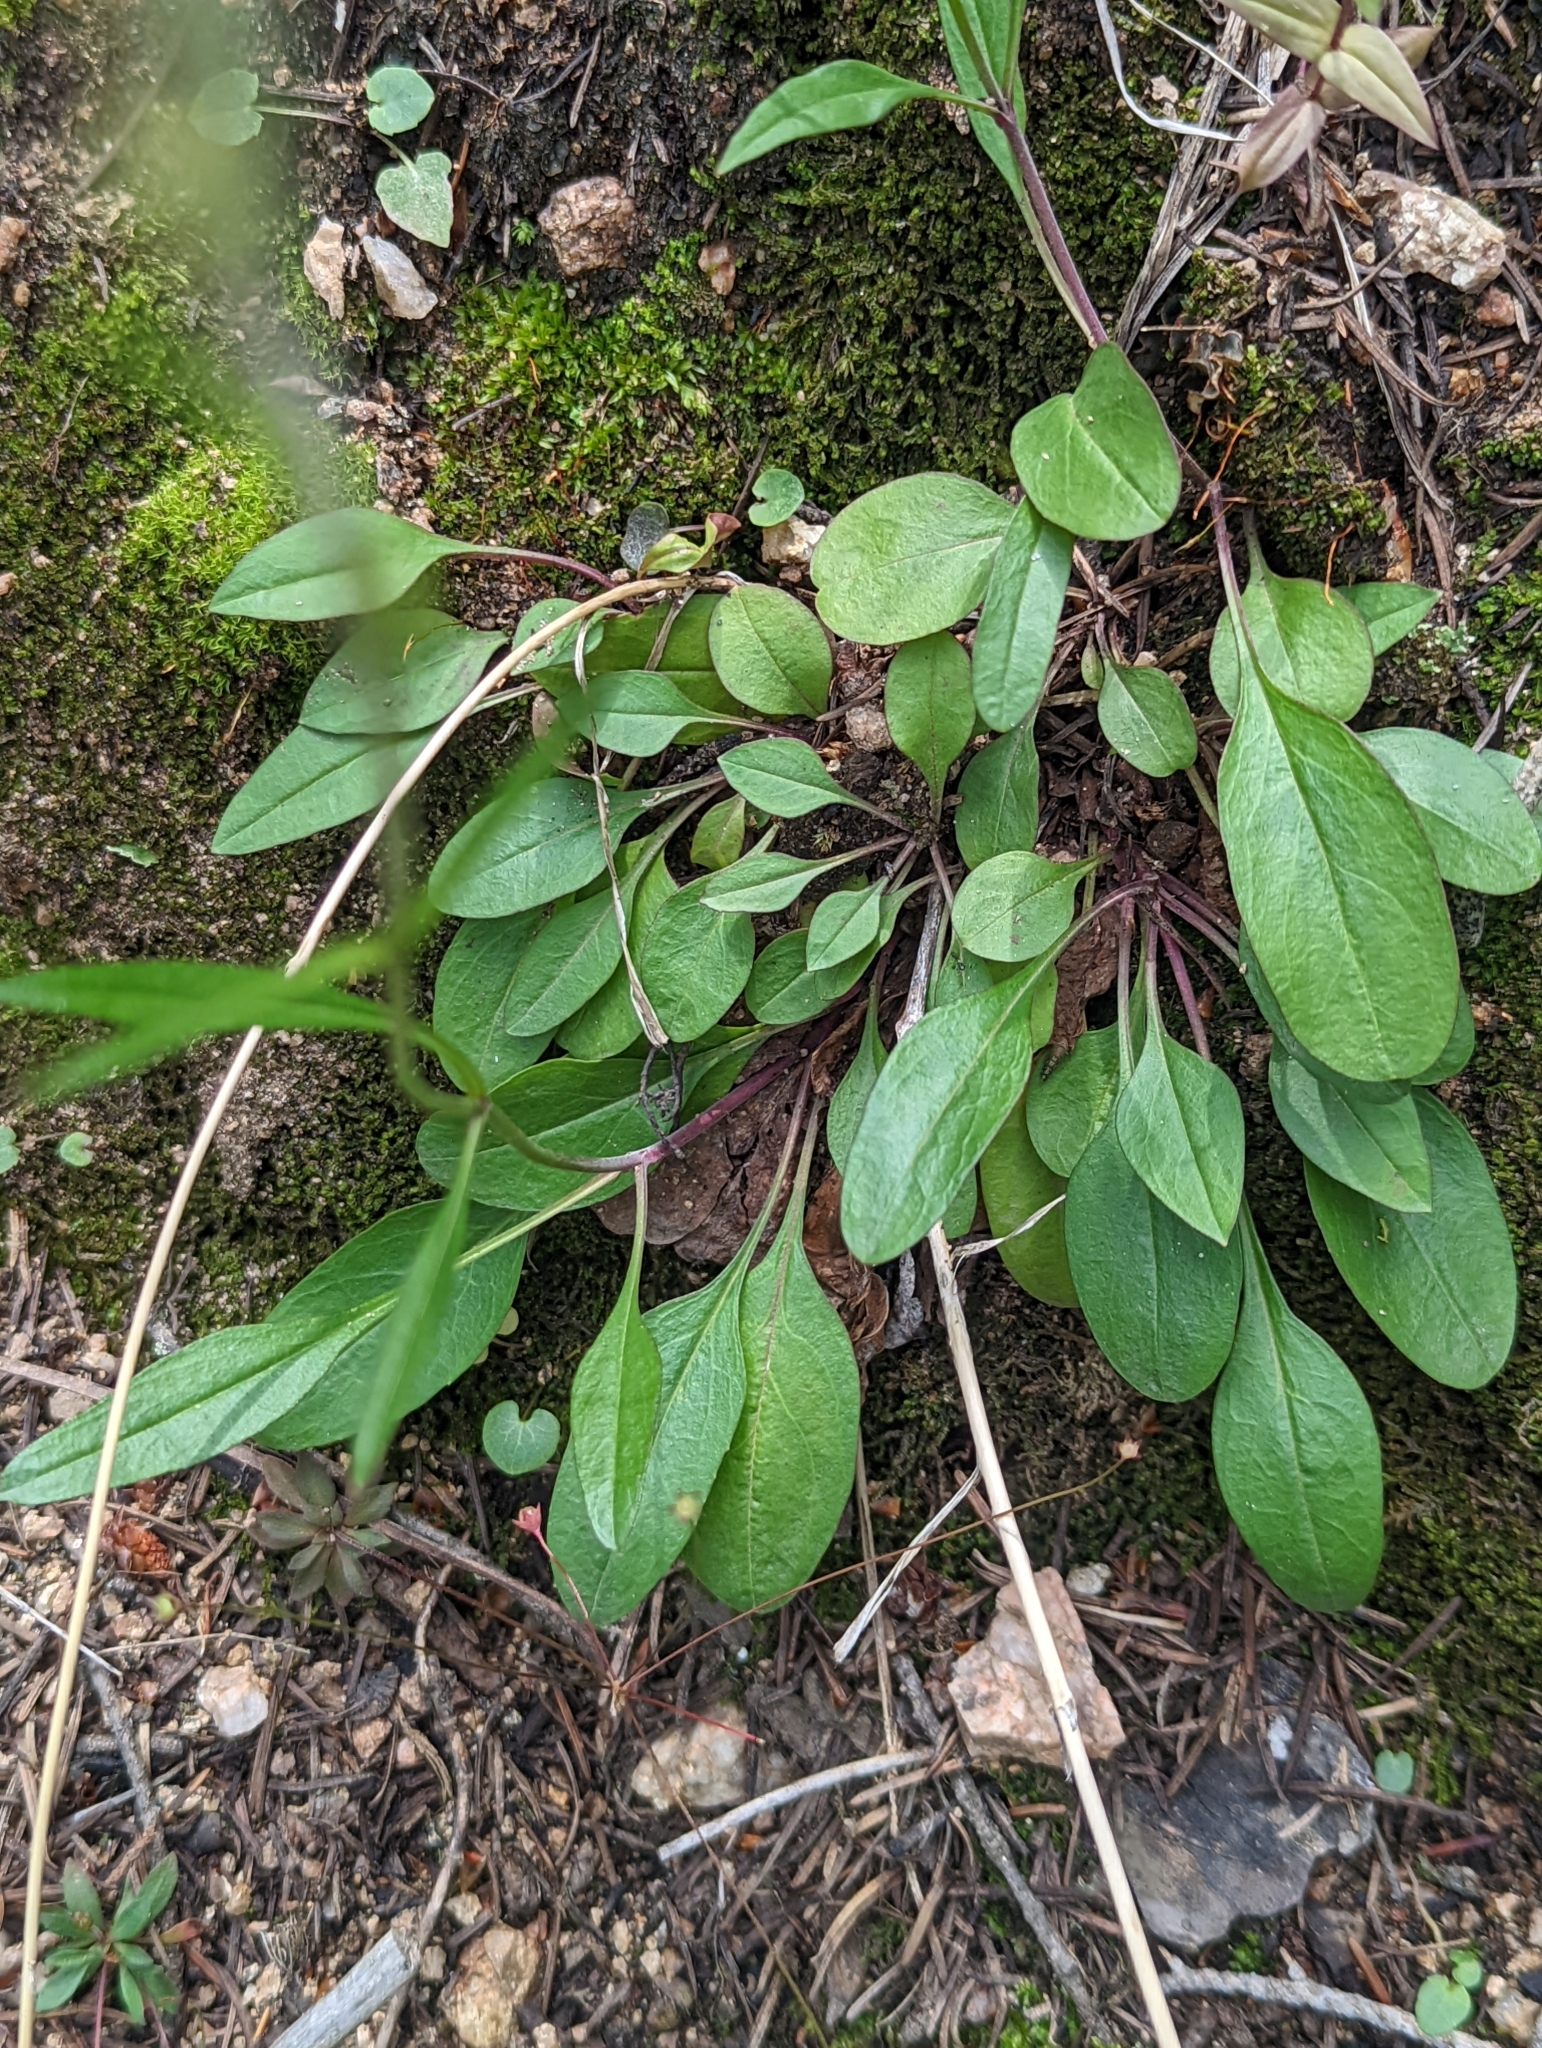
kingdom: Plantae
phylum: Tracheophyta
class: Magnoliopsida
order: Lamiales
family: Plantaginaceae
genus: Penstemon
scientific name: Penstemon griffinii
